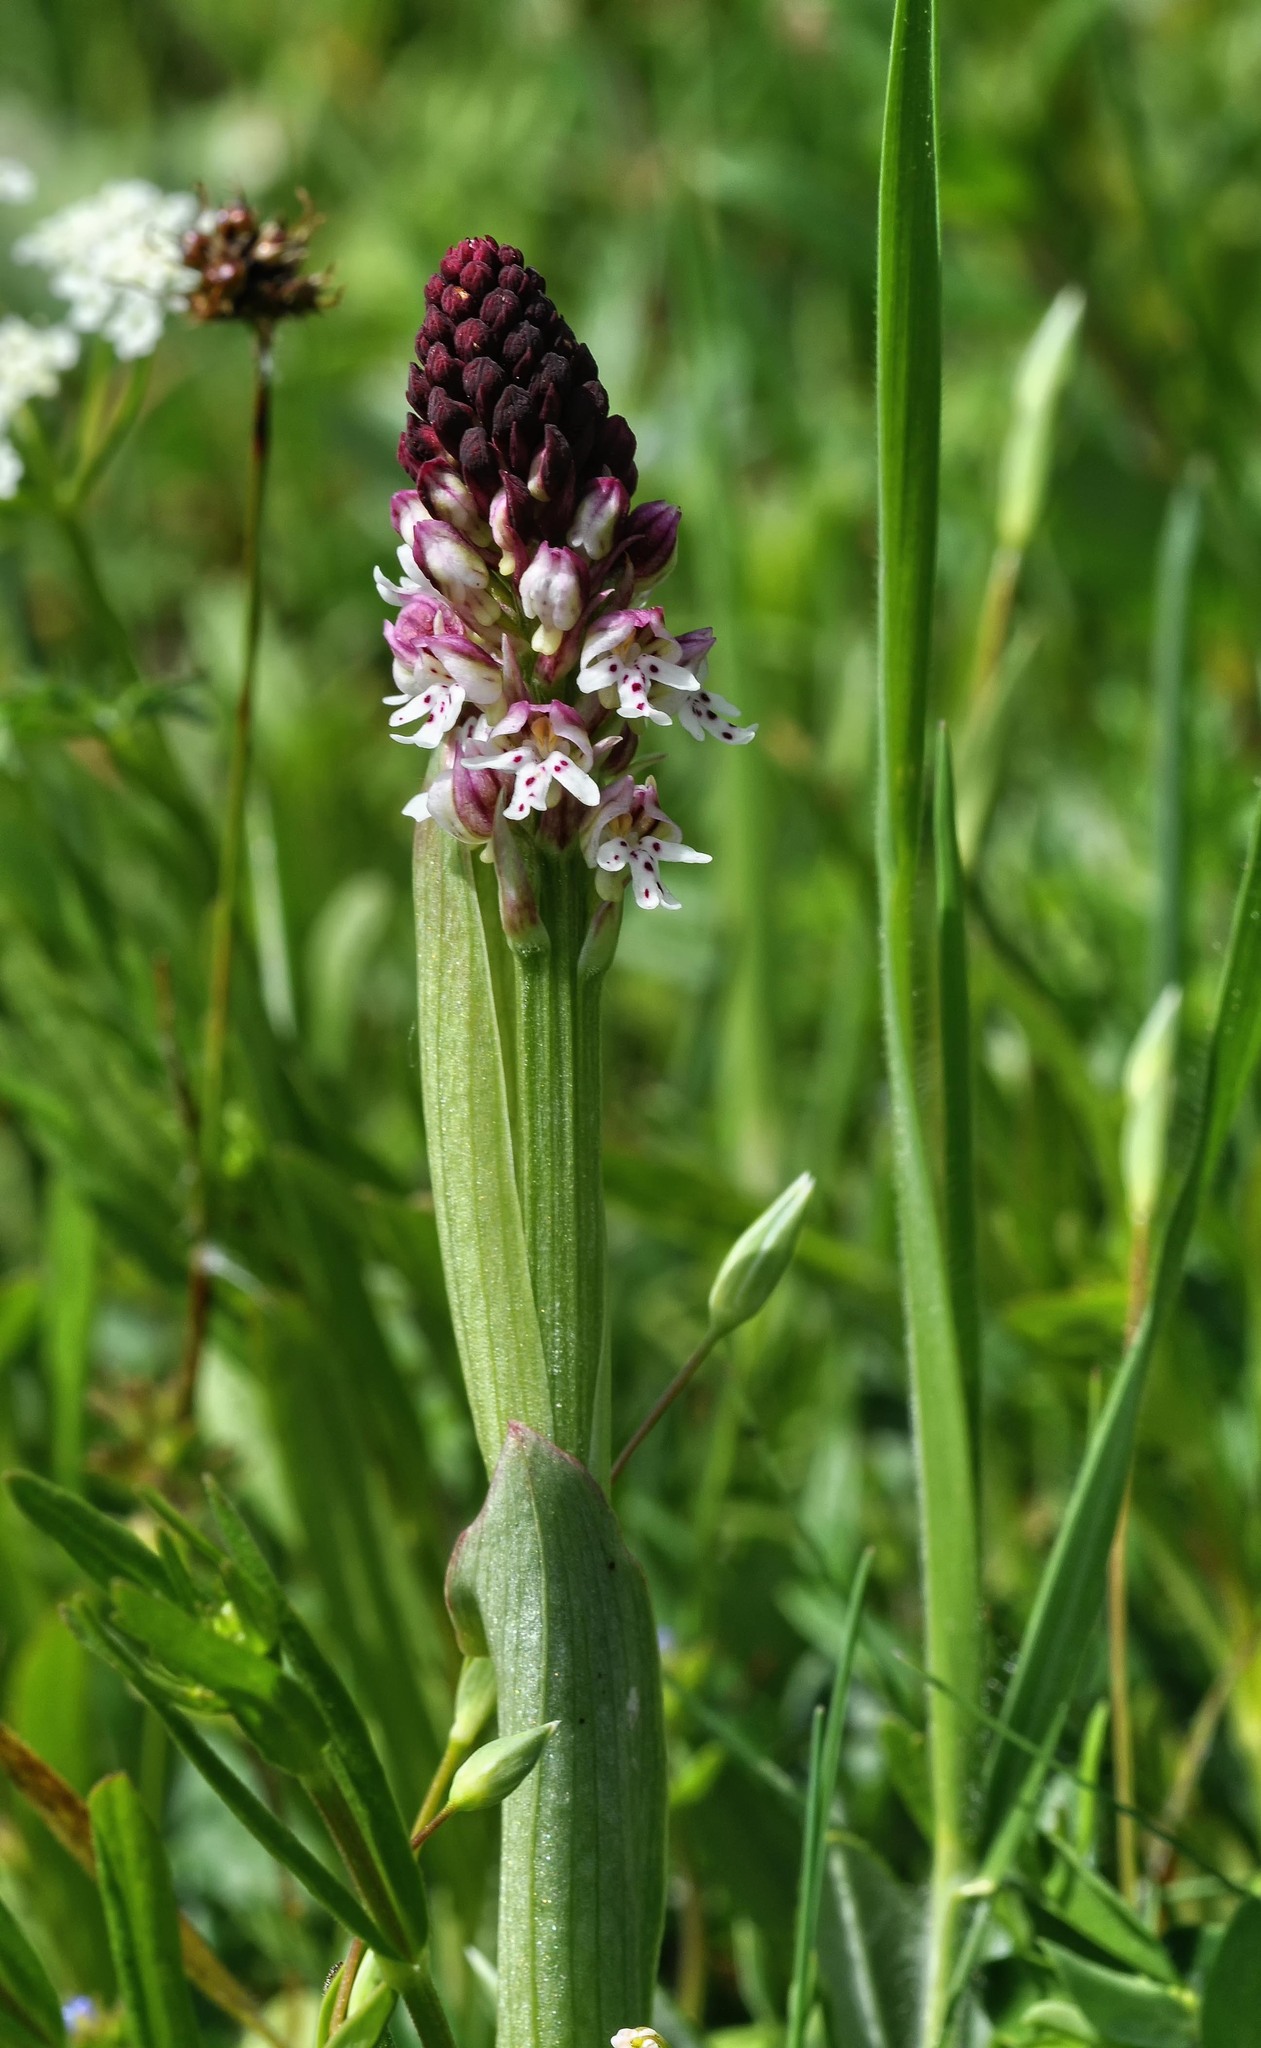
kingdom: Plantae
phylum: Tracheophyta
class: Liliopsida
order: Asparagales
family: Orchidaceae
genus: Neotinea
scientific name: Neotinea ustulata
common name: Burnt orchid
